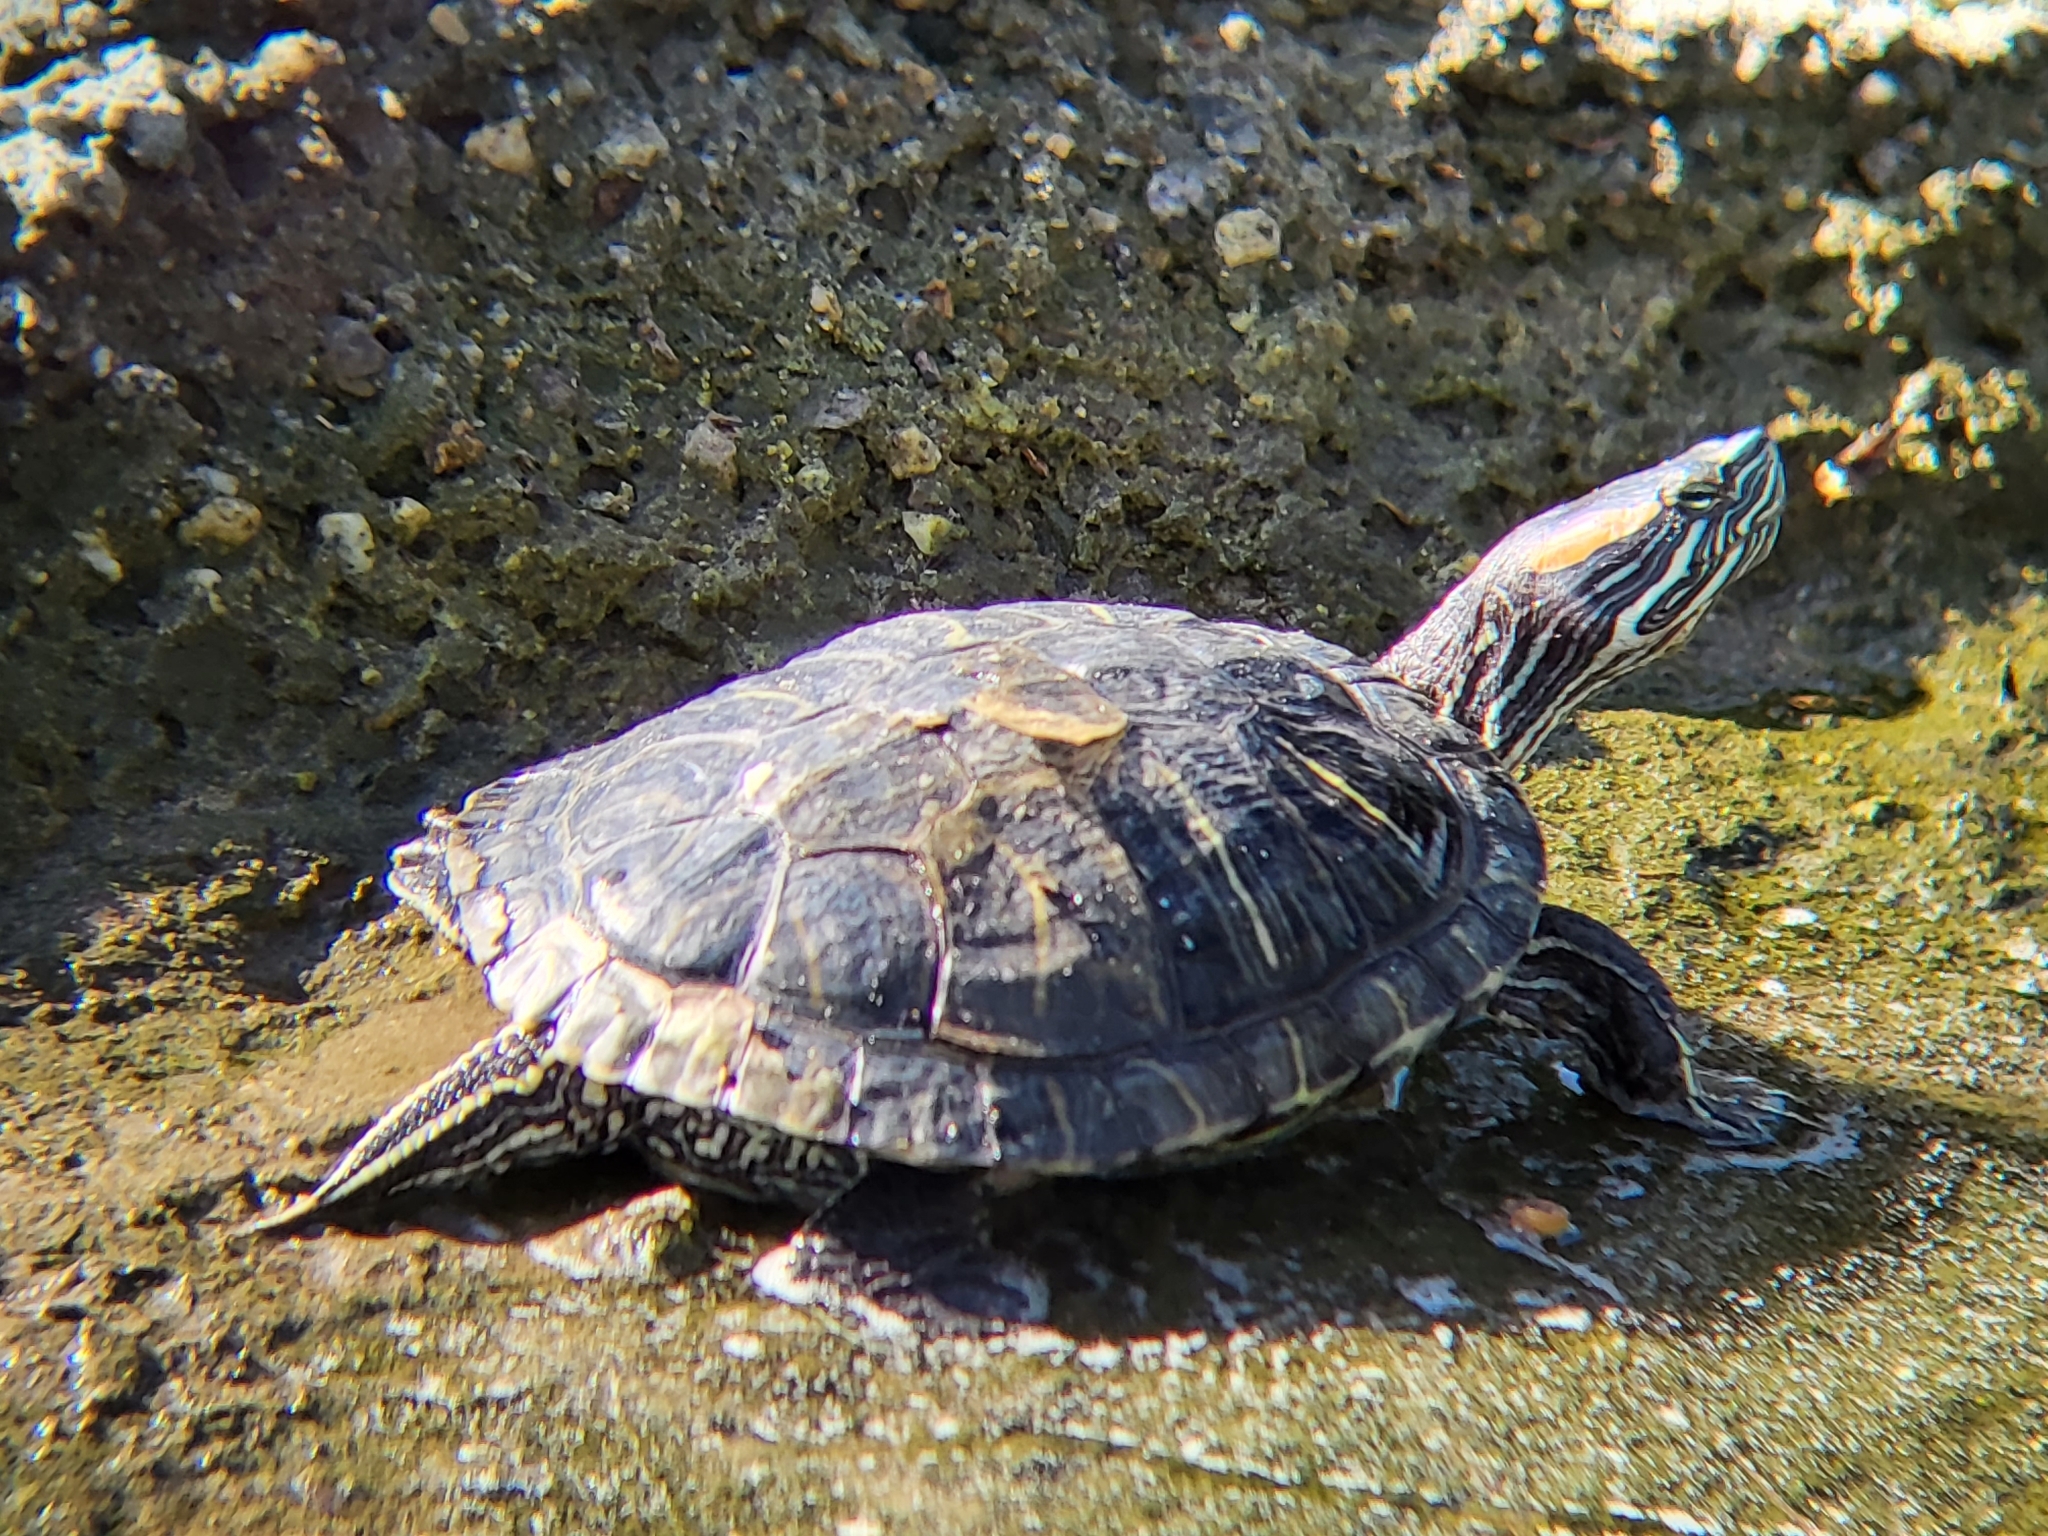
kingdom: Animalia
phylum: Chordata
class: Testudines
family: Emydidae
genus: Trachemys
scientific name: Trachemys scripta
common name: Slider
